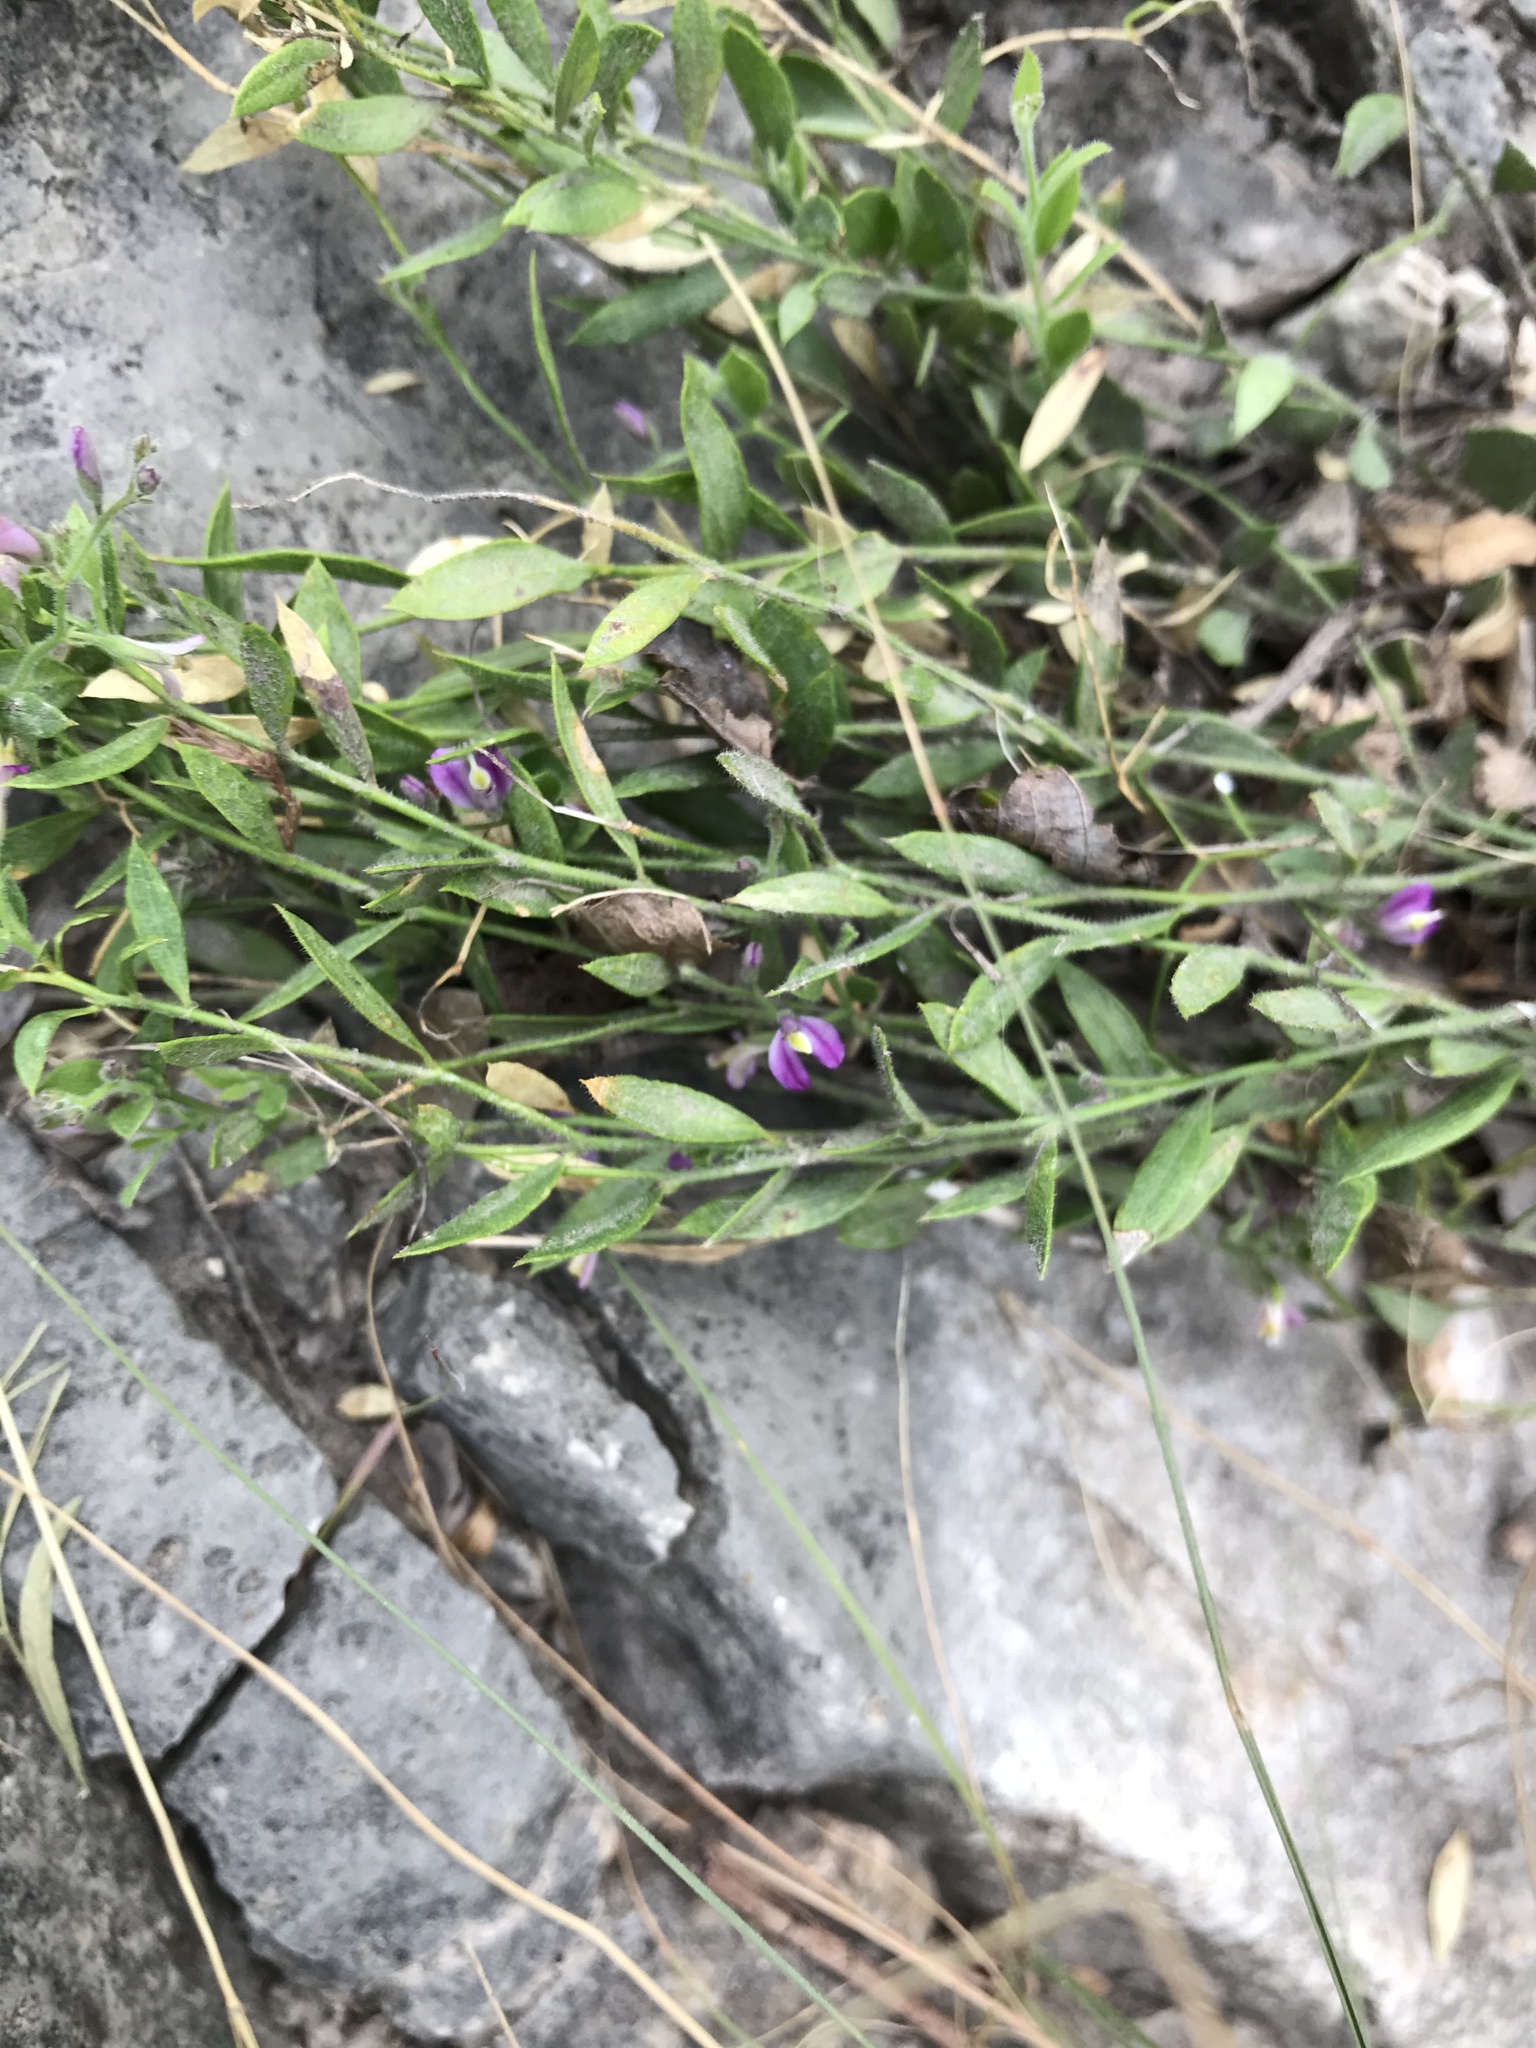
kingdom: Plantae
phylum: Tracheophyta
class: Magnoliopsida
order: Fabales
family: Polygalaceae
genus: Rhinotropis
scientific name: Rhinotropis lindheimeri
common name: Shrubby milkwort
